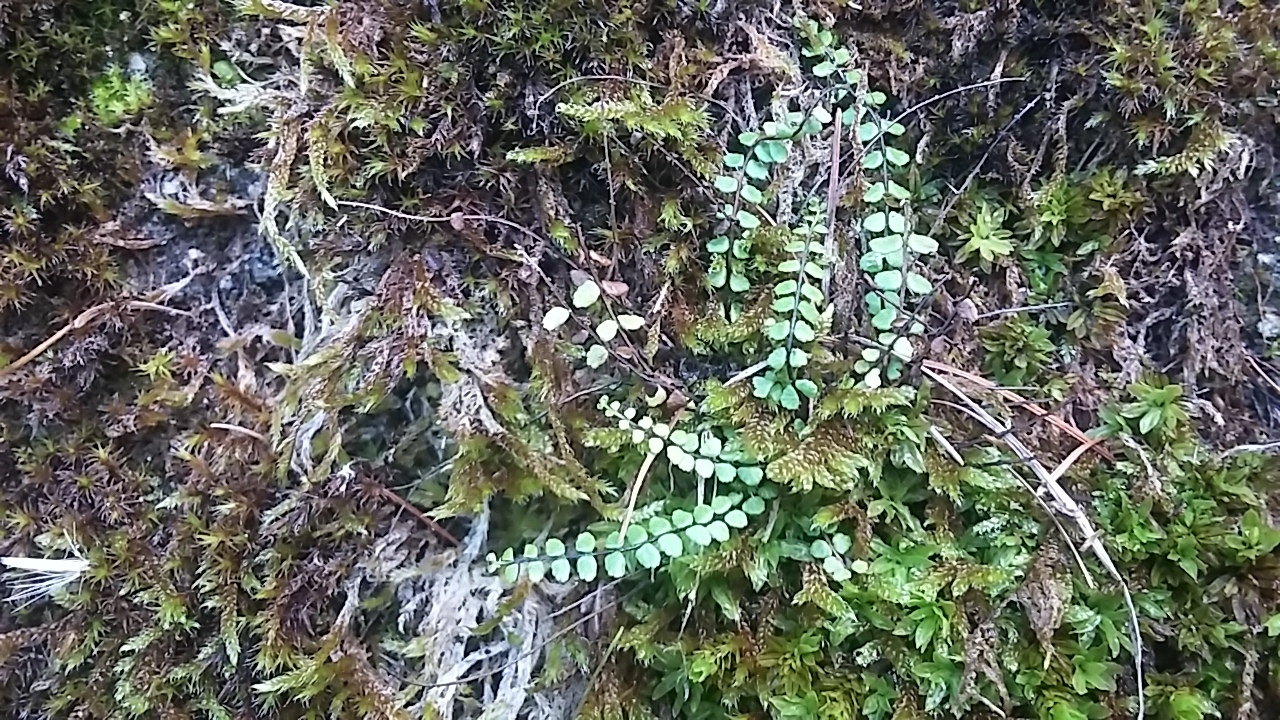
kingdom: Plantae
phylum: Tracheophyta
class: Polypodiopsida
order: Polypodiales
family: Aspleniaceae
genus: Asplenium
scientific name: Asplenium trichomanes
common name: Maidenhair spleenwort
